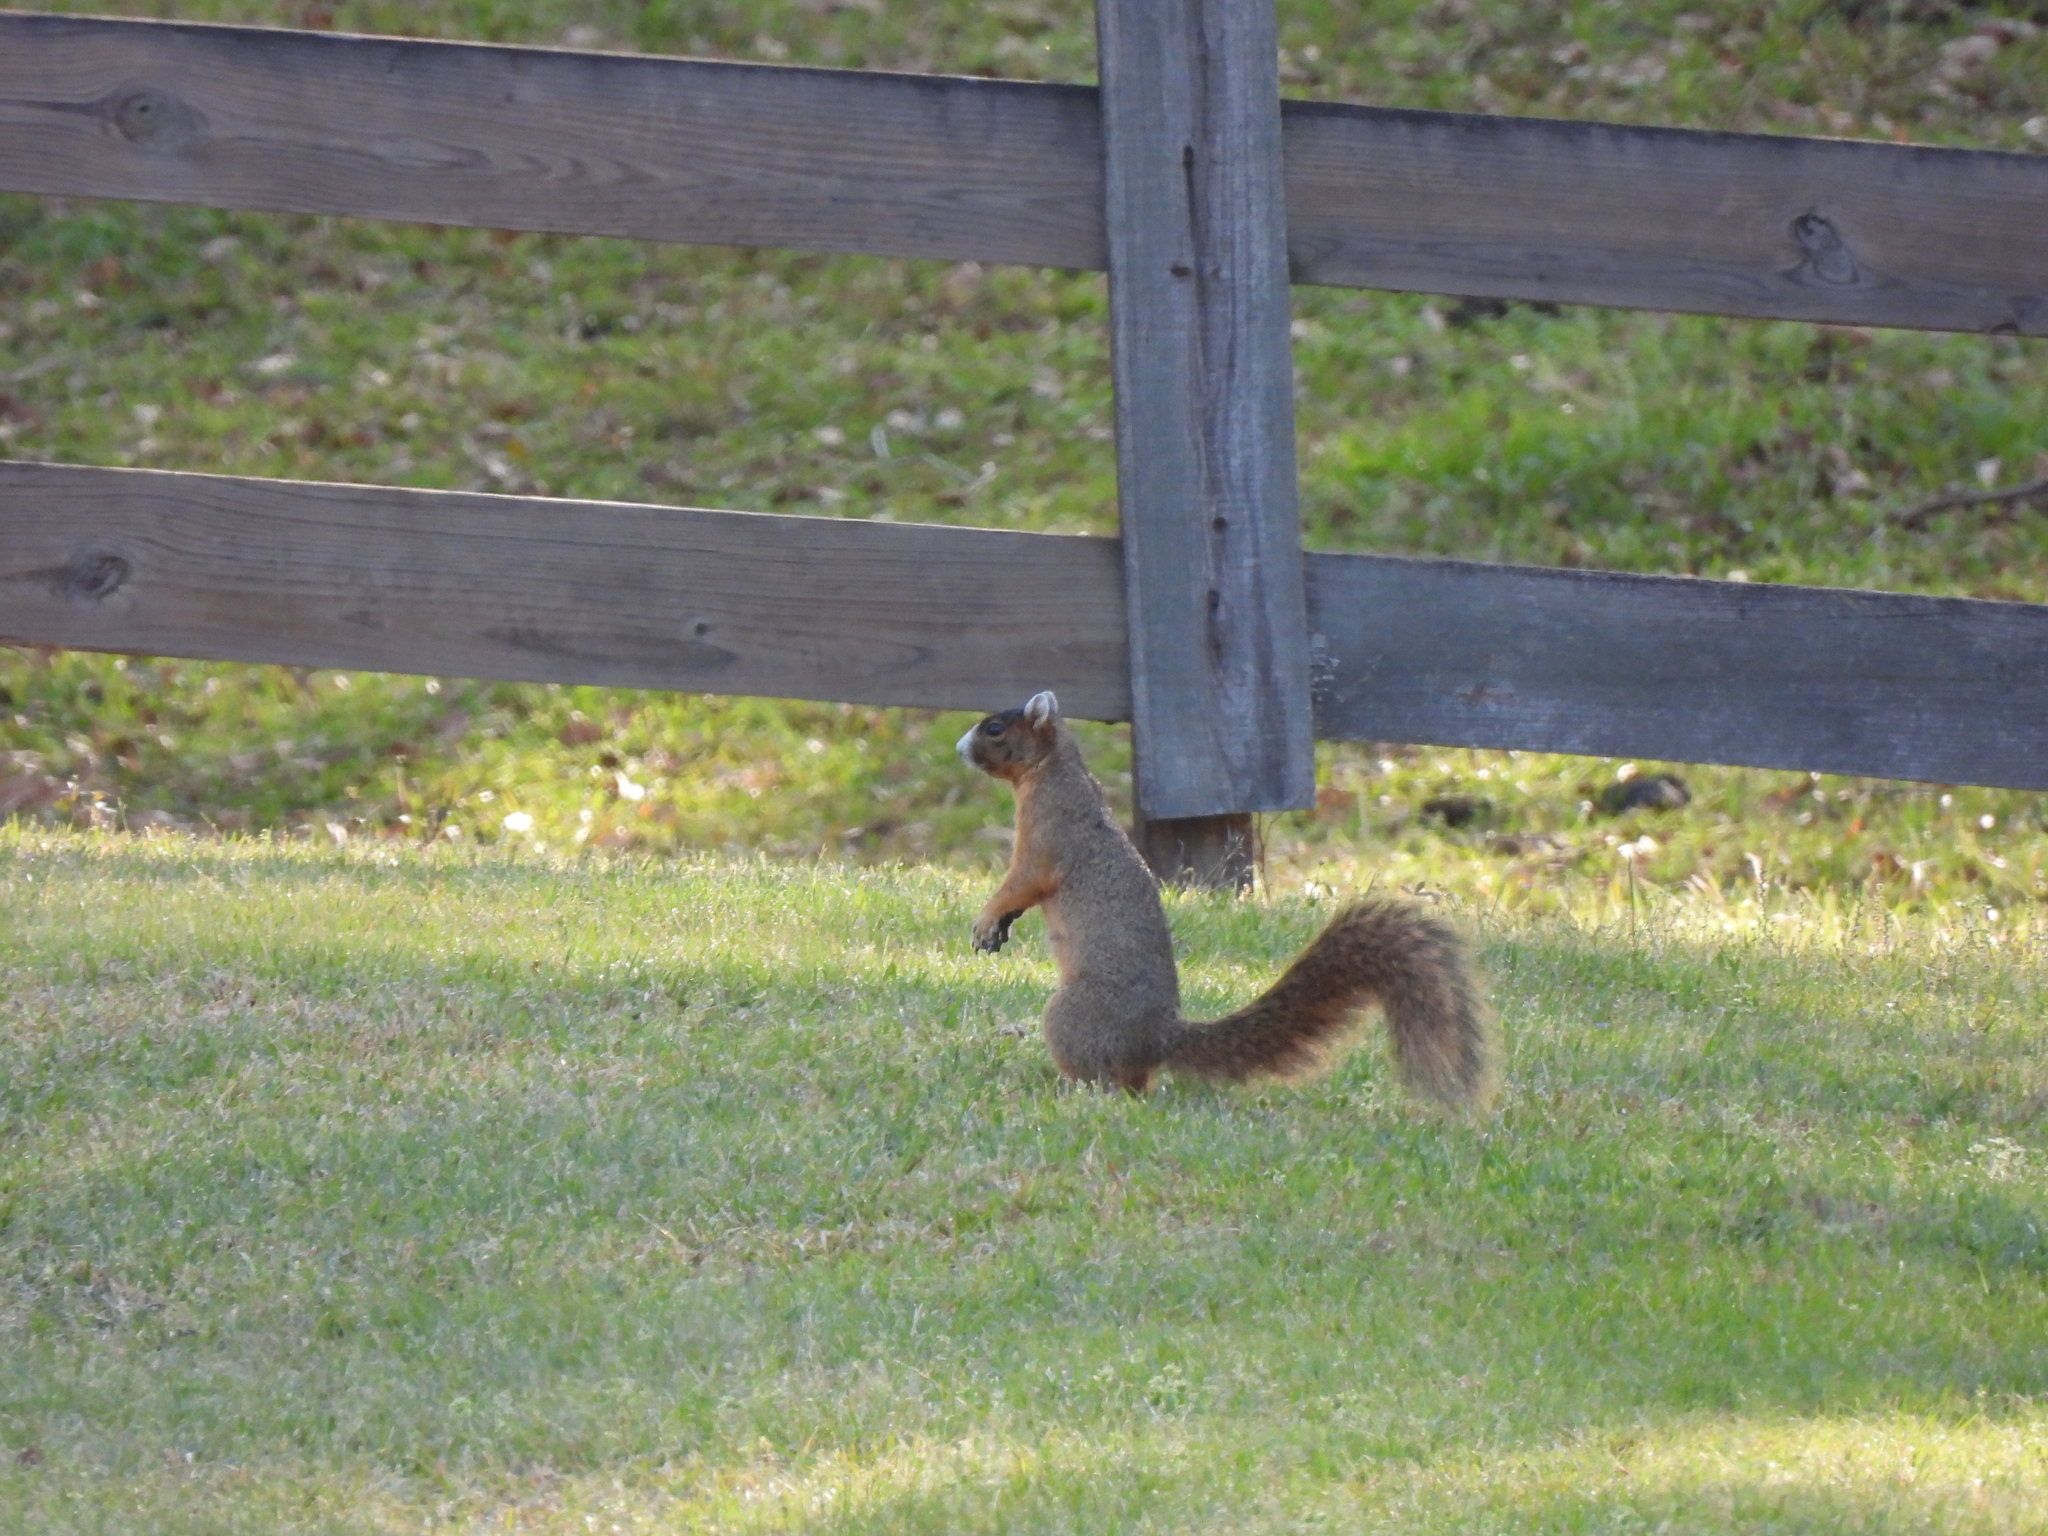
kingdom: Animalia
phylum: Chordata
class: Mammalia
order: Rodentia
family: Sciuridae
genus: Sciurus
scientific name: Sciurus niger
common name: Fox squirrel
